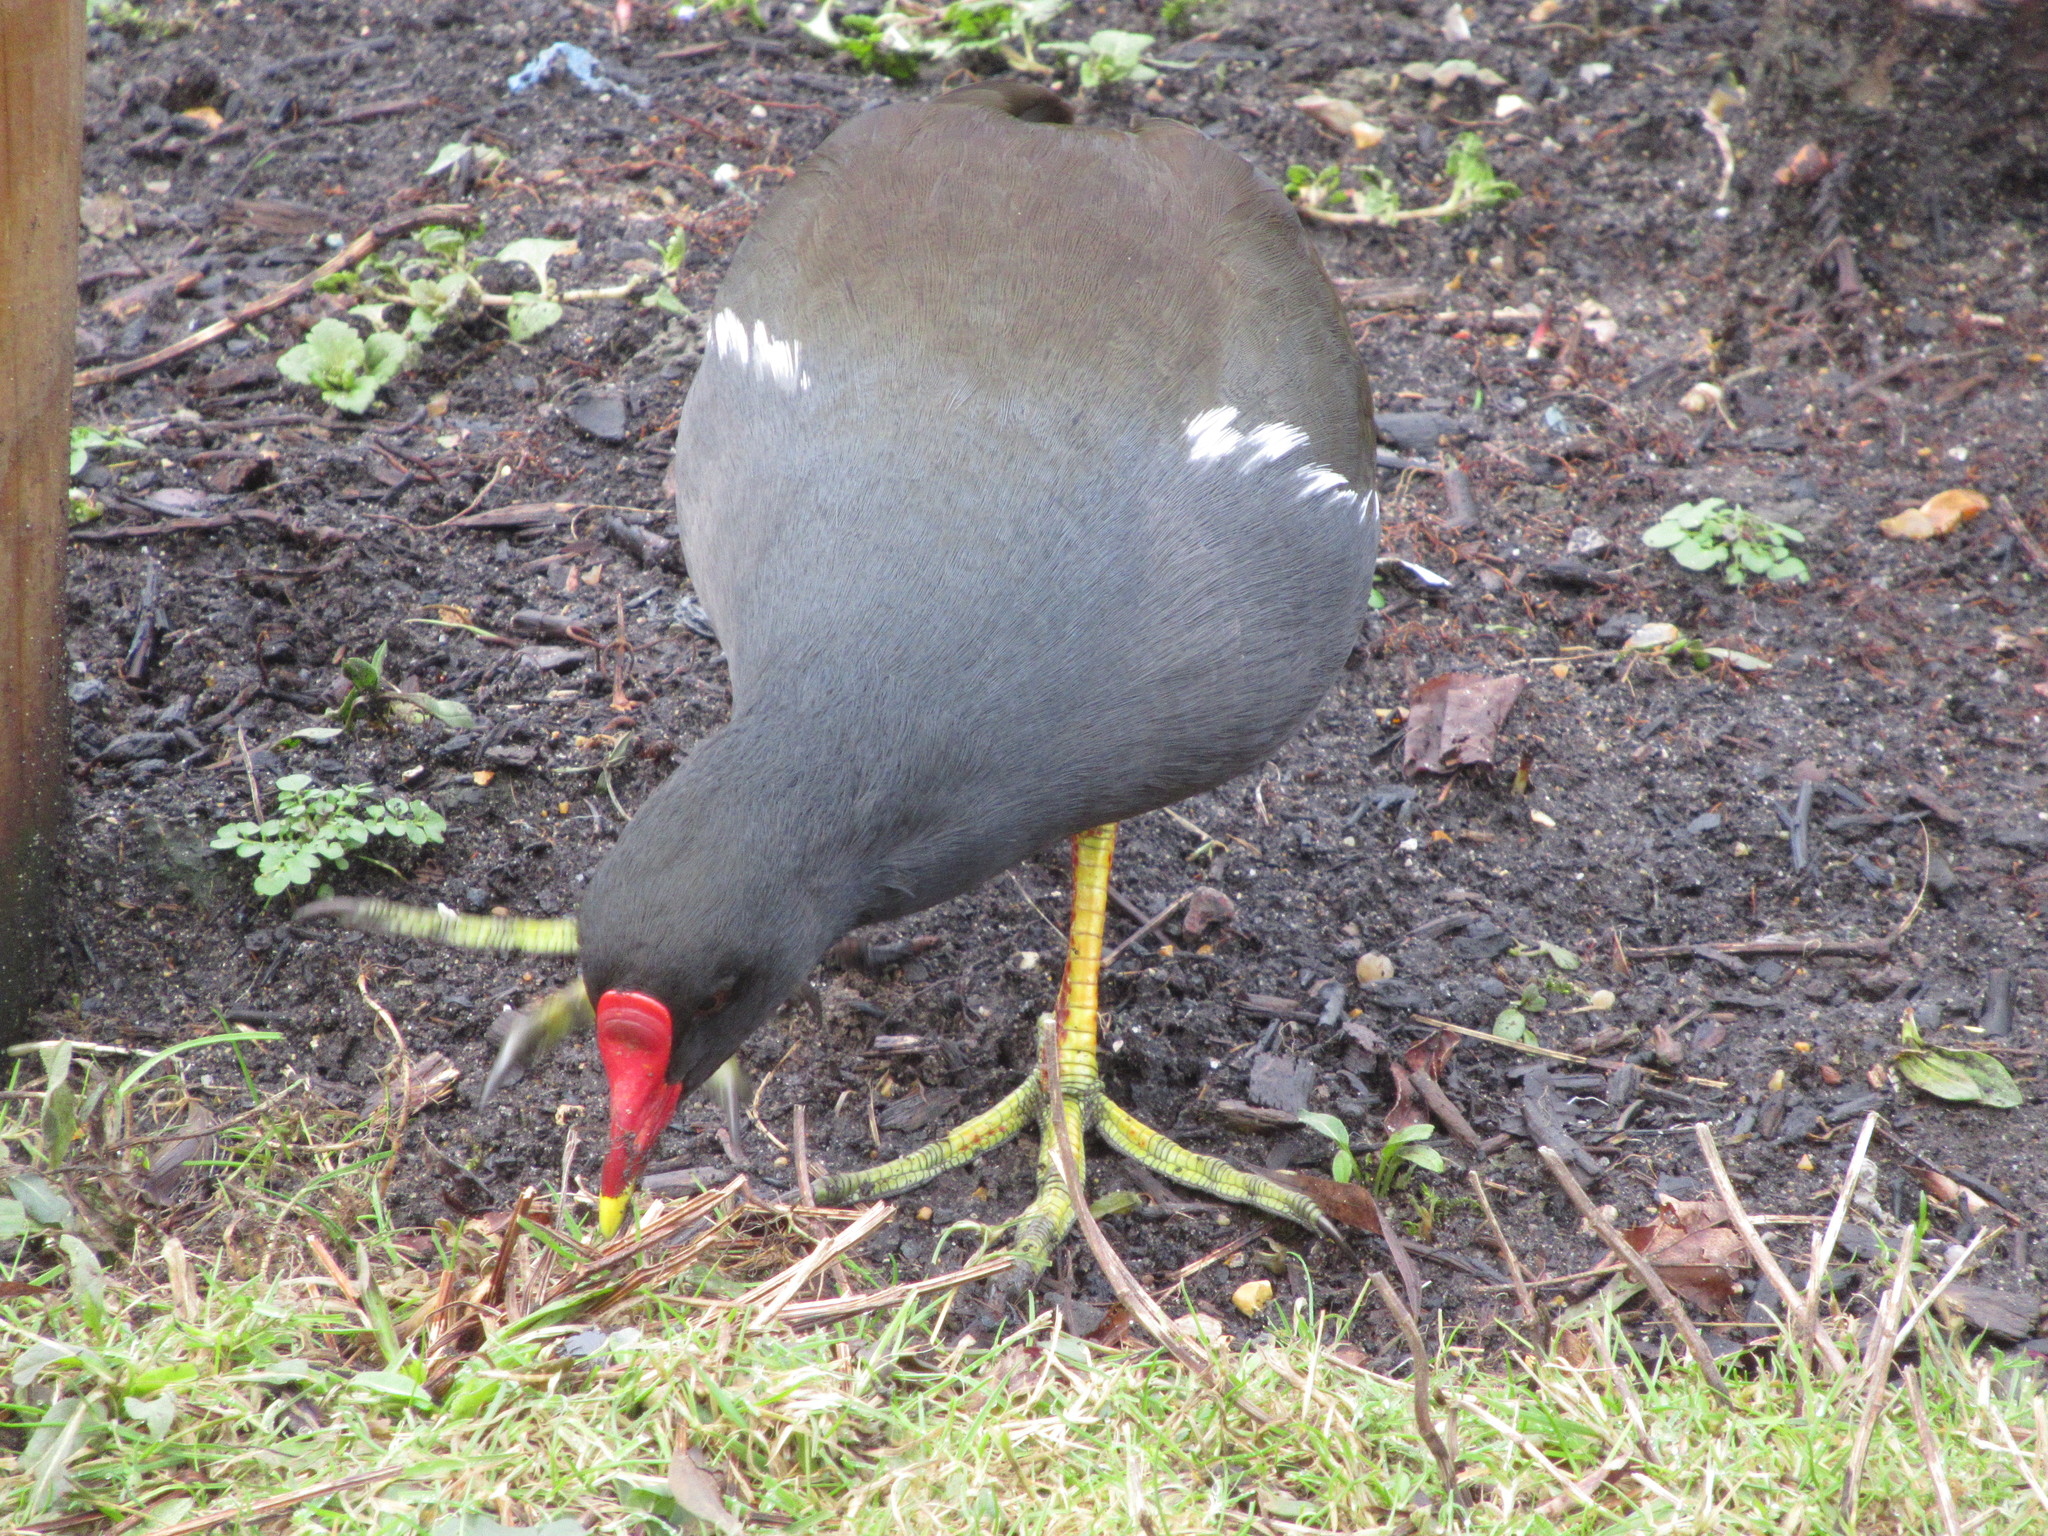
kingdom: Animalia
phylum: Chordata
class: Aves
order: Gruiformes
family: Rallidae
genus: Gallinula
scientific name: Gallinula chloropus
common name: Common moorhen
